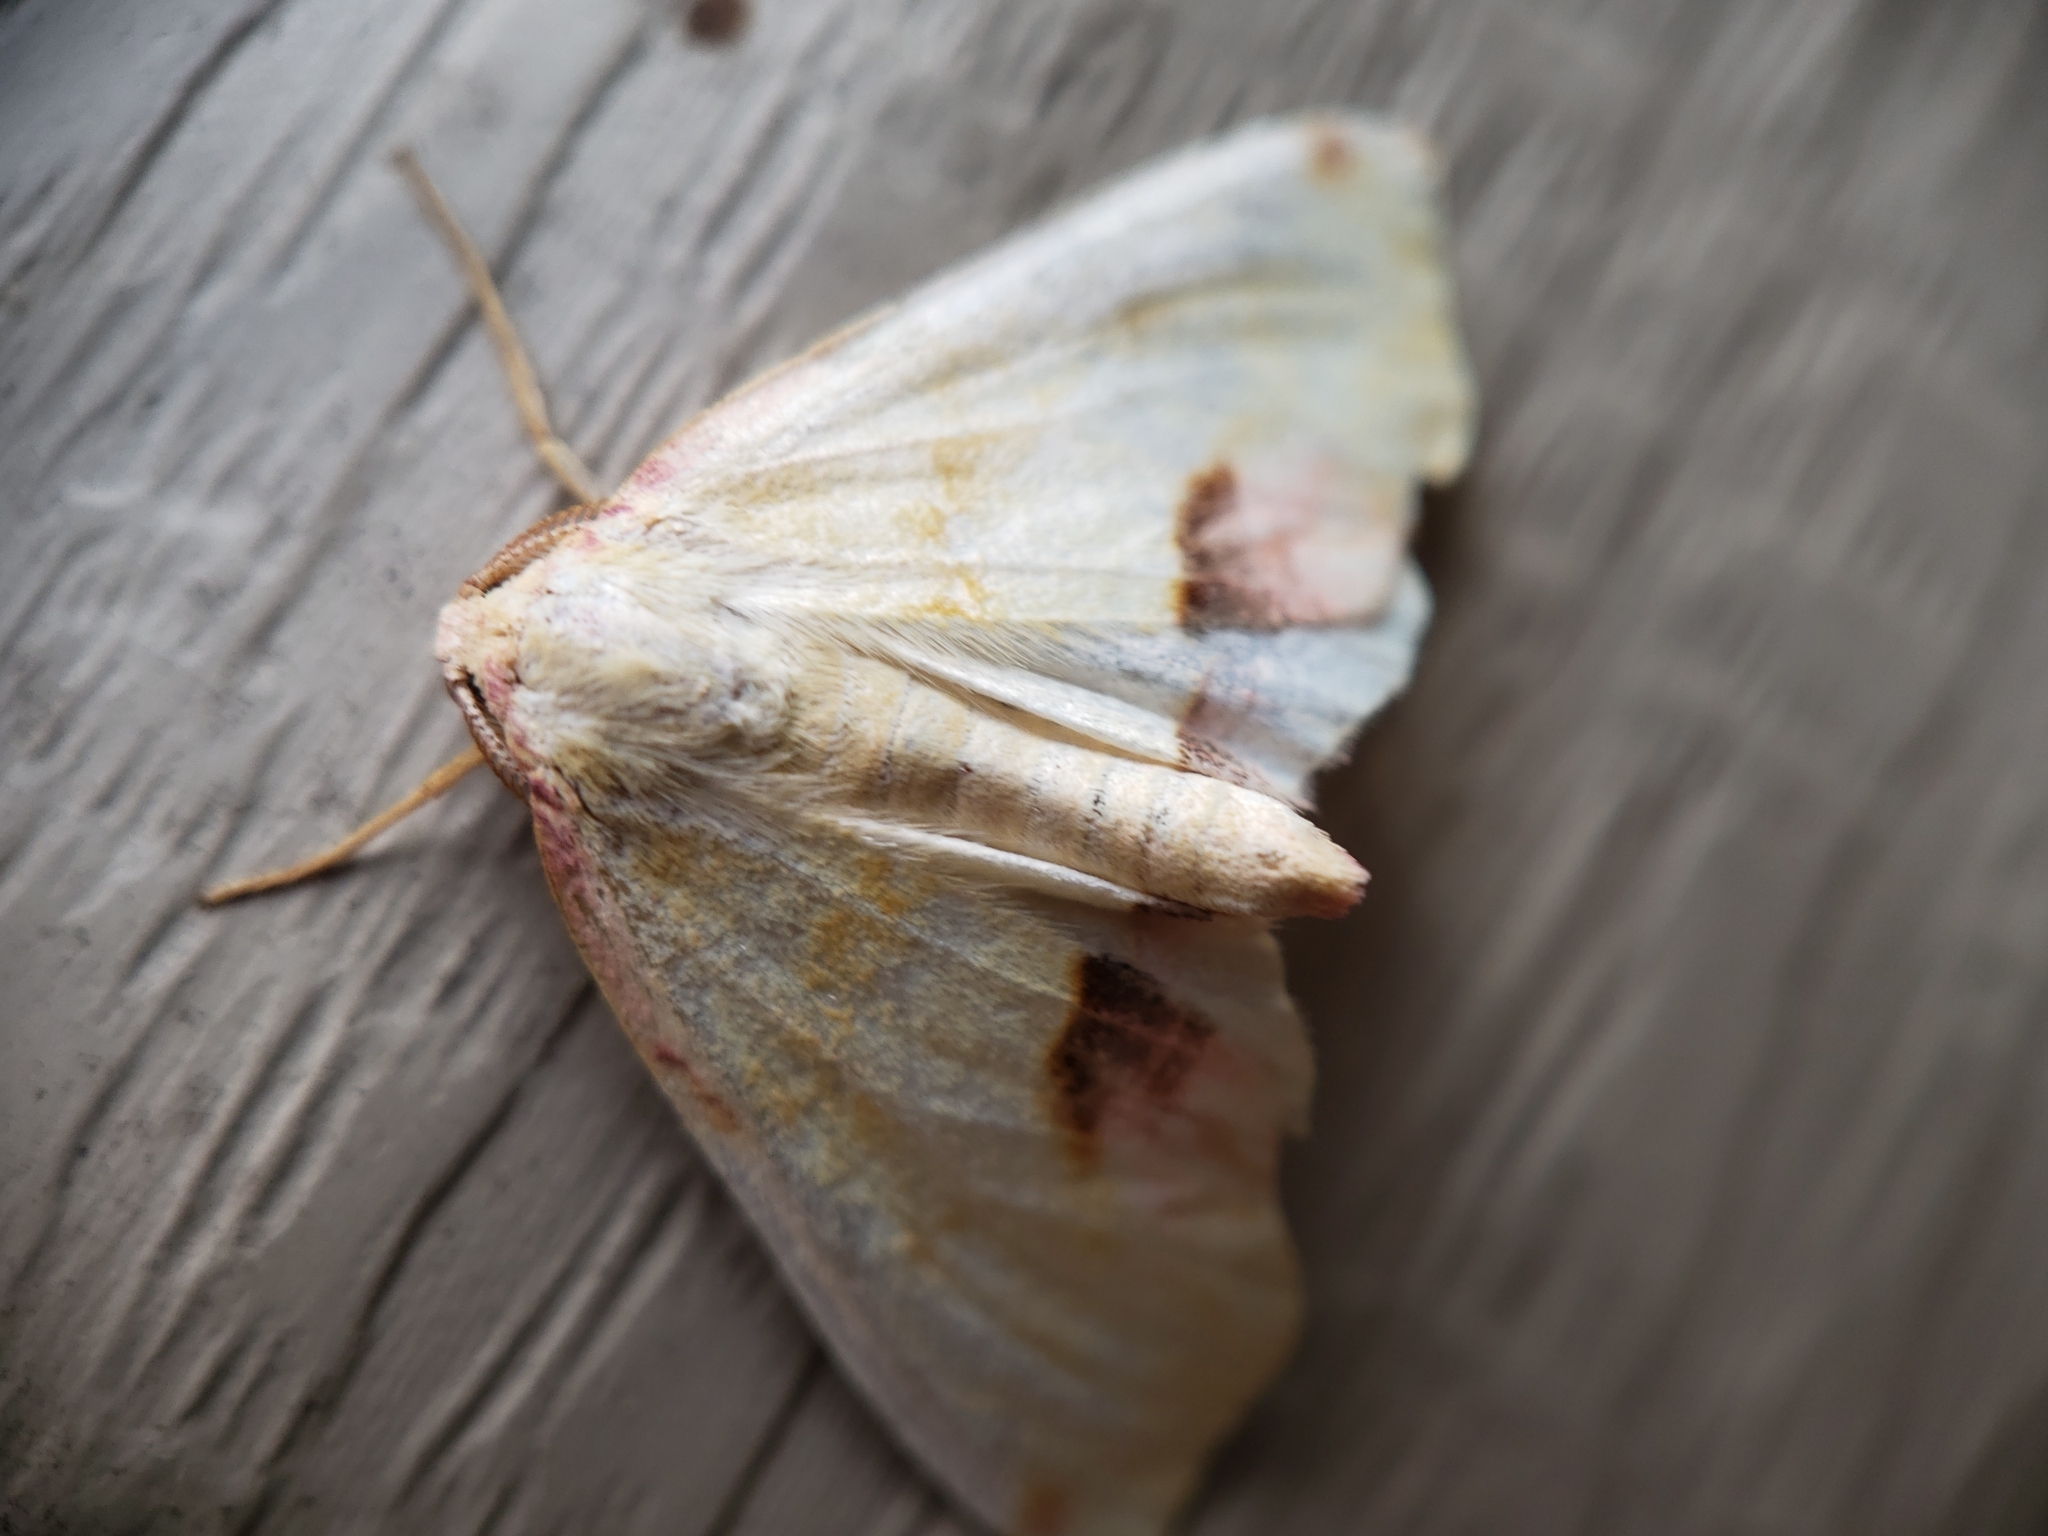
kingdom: Animalia
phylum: Arthropoda
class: Insecta
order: Lepidoptera
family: Geometridae
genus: Plagodis
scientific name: Plagodis serinaria
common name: Lemon plagodis
